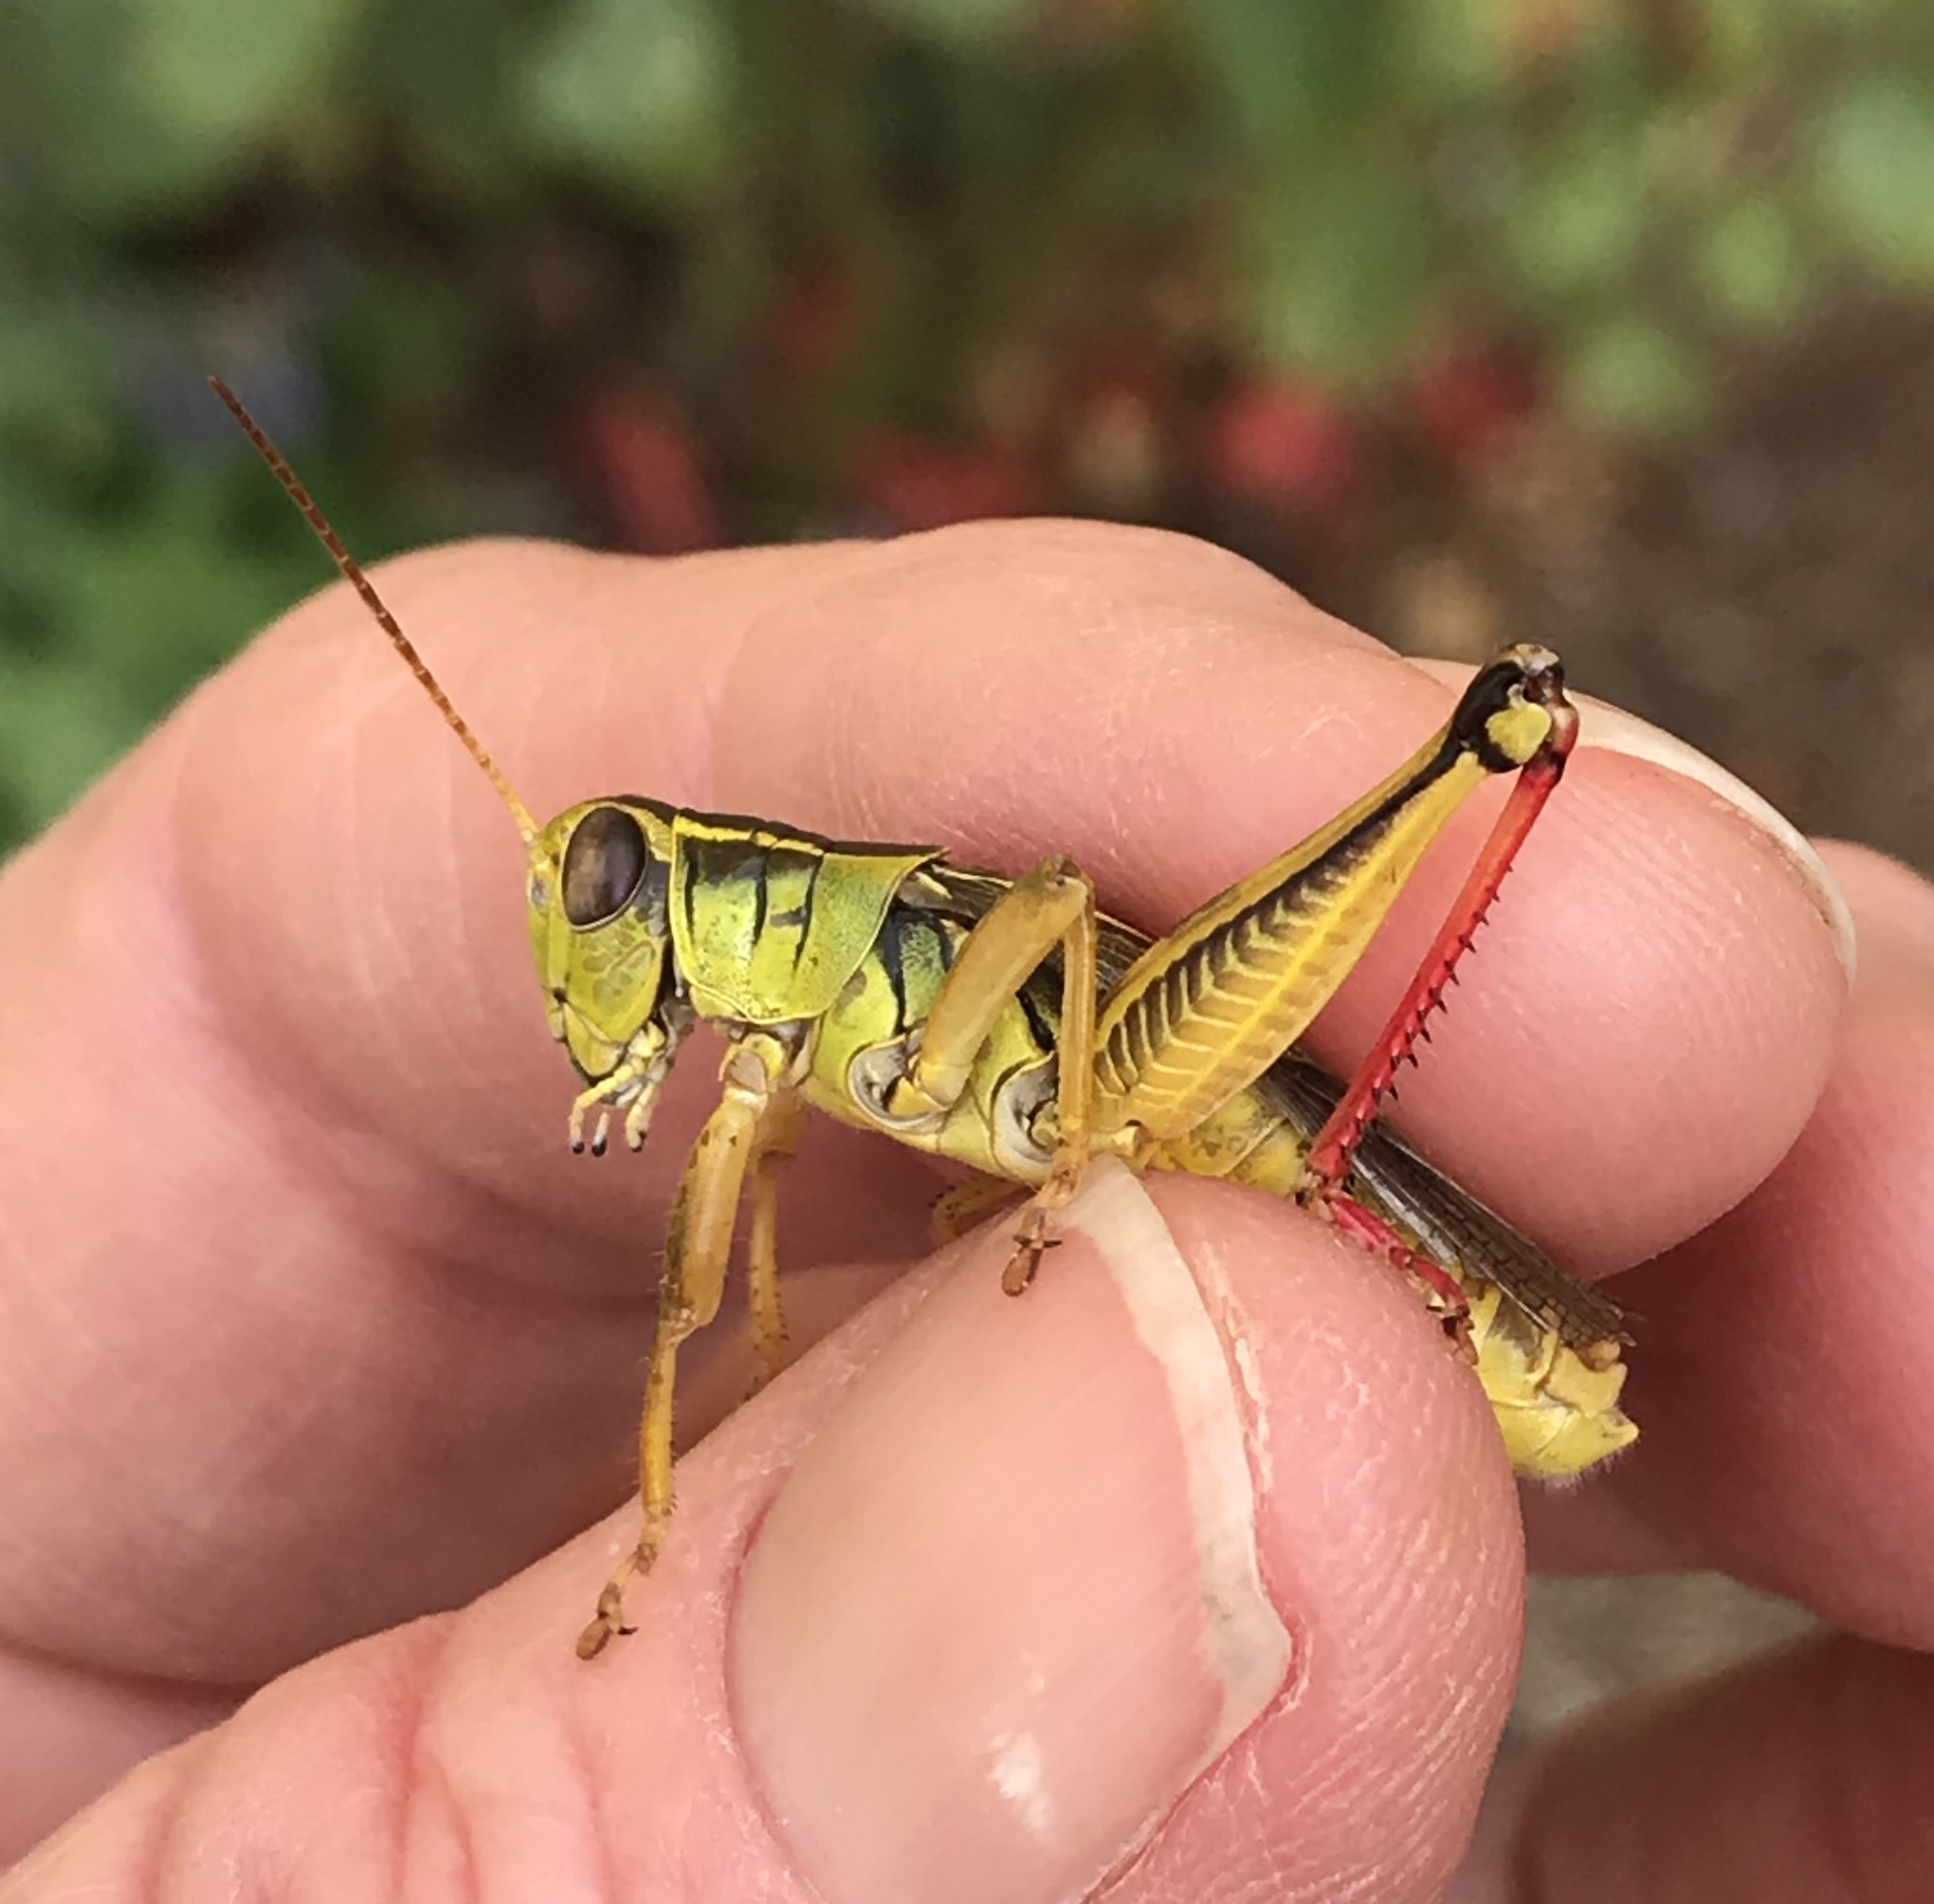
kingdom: Animalia
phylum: Arthropoda
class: Insecta
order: Orthoptera
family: Acrididae
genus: Melanoplus
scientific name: Melanoplus bivittatus
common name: Two-striped grasshopper
